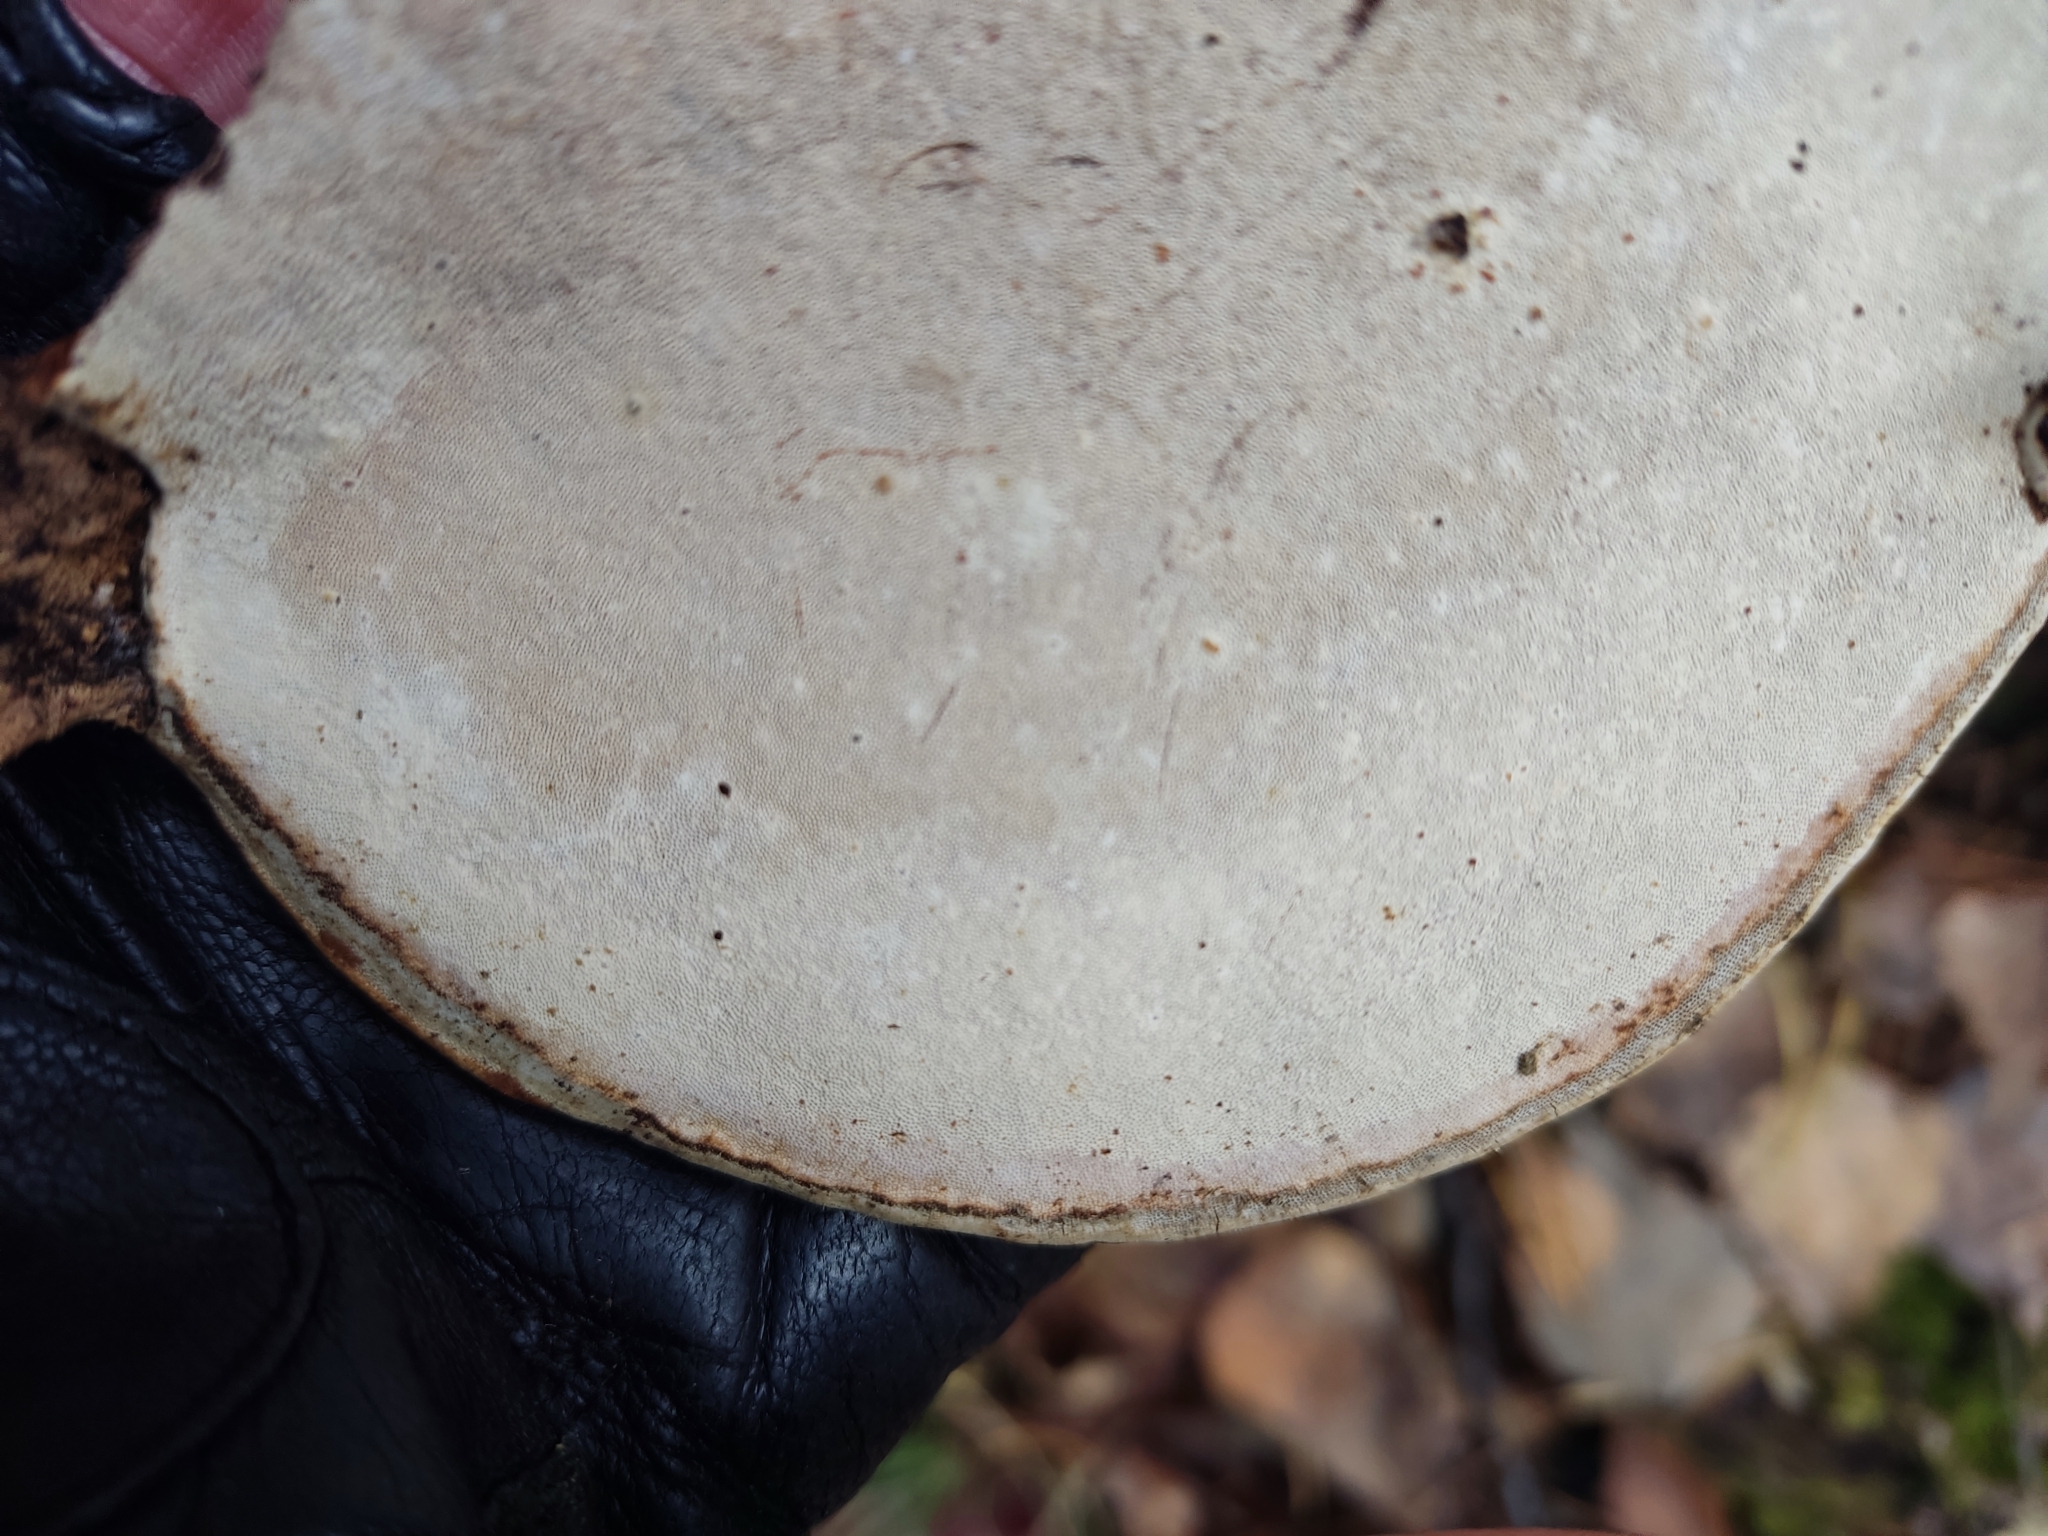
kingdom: Fungi
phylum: Basidiomycota
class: Agaricomycetes
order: Polyporales
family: Polyporaceae
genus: Ganoderma
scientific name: Ganoderma applanatum
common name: Artist's bracket
